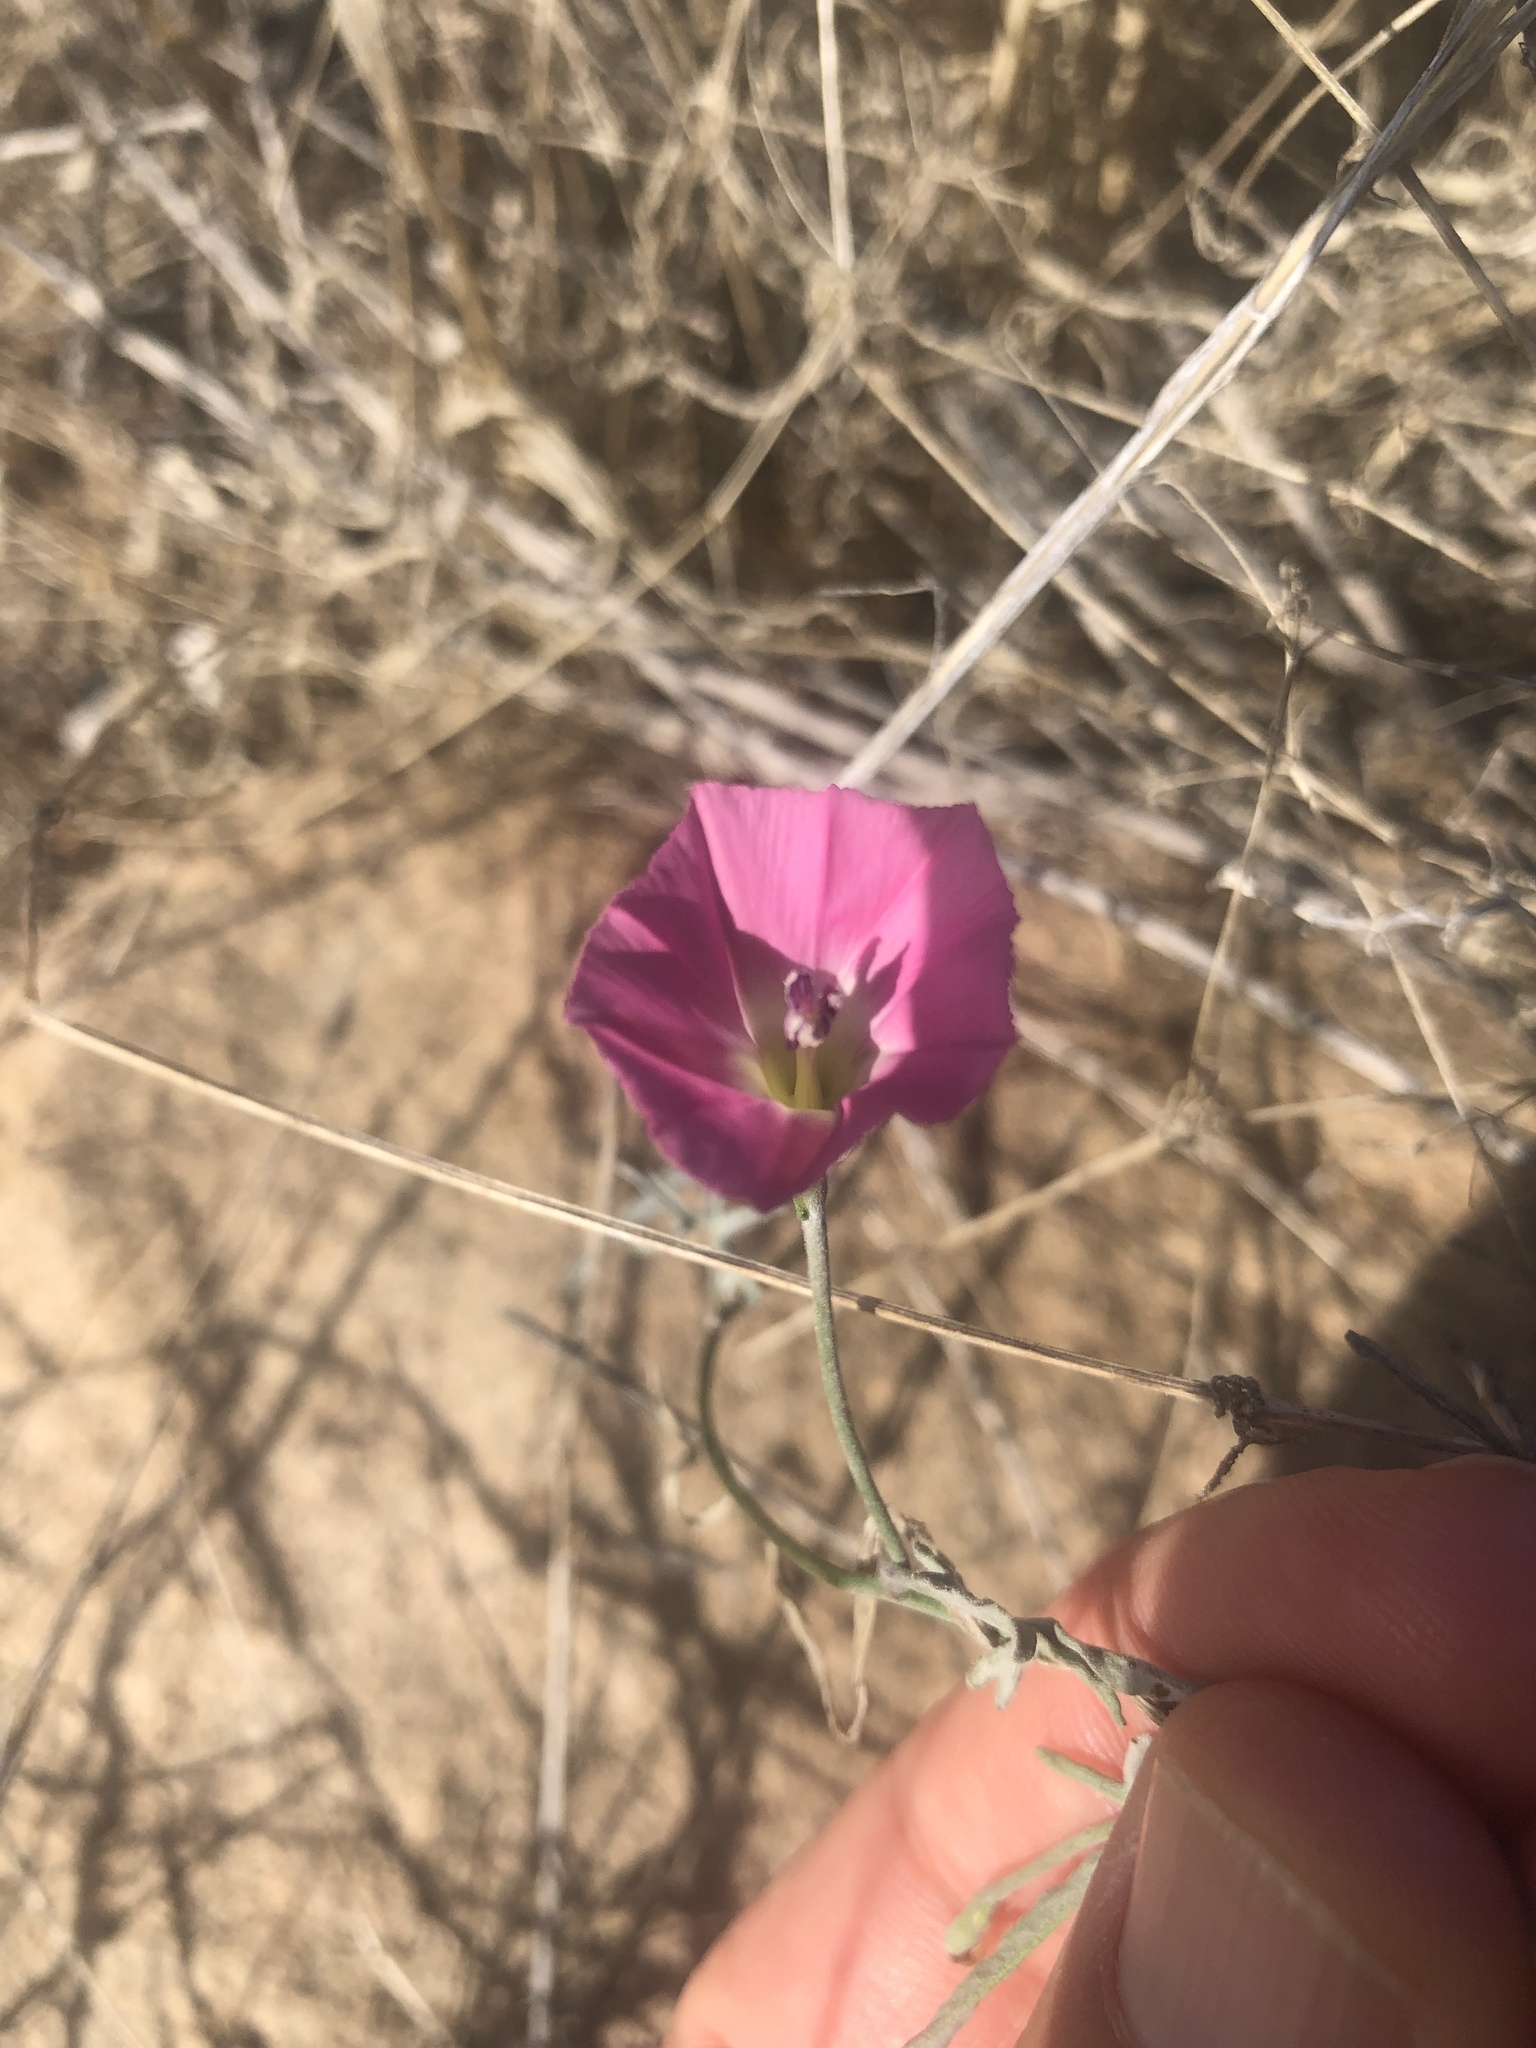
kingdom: Plantae
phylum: Tracheophyta
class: Magnoliopsida
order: Solanales
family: Convolvulaceae
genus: Convolvulus
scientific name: Convolvulus chilensis
